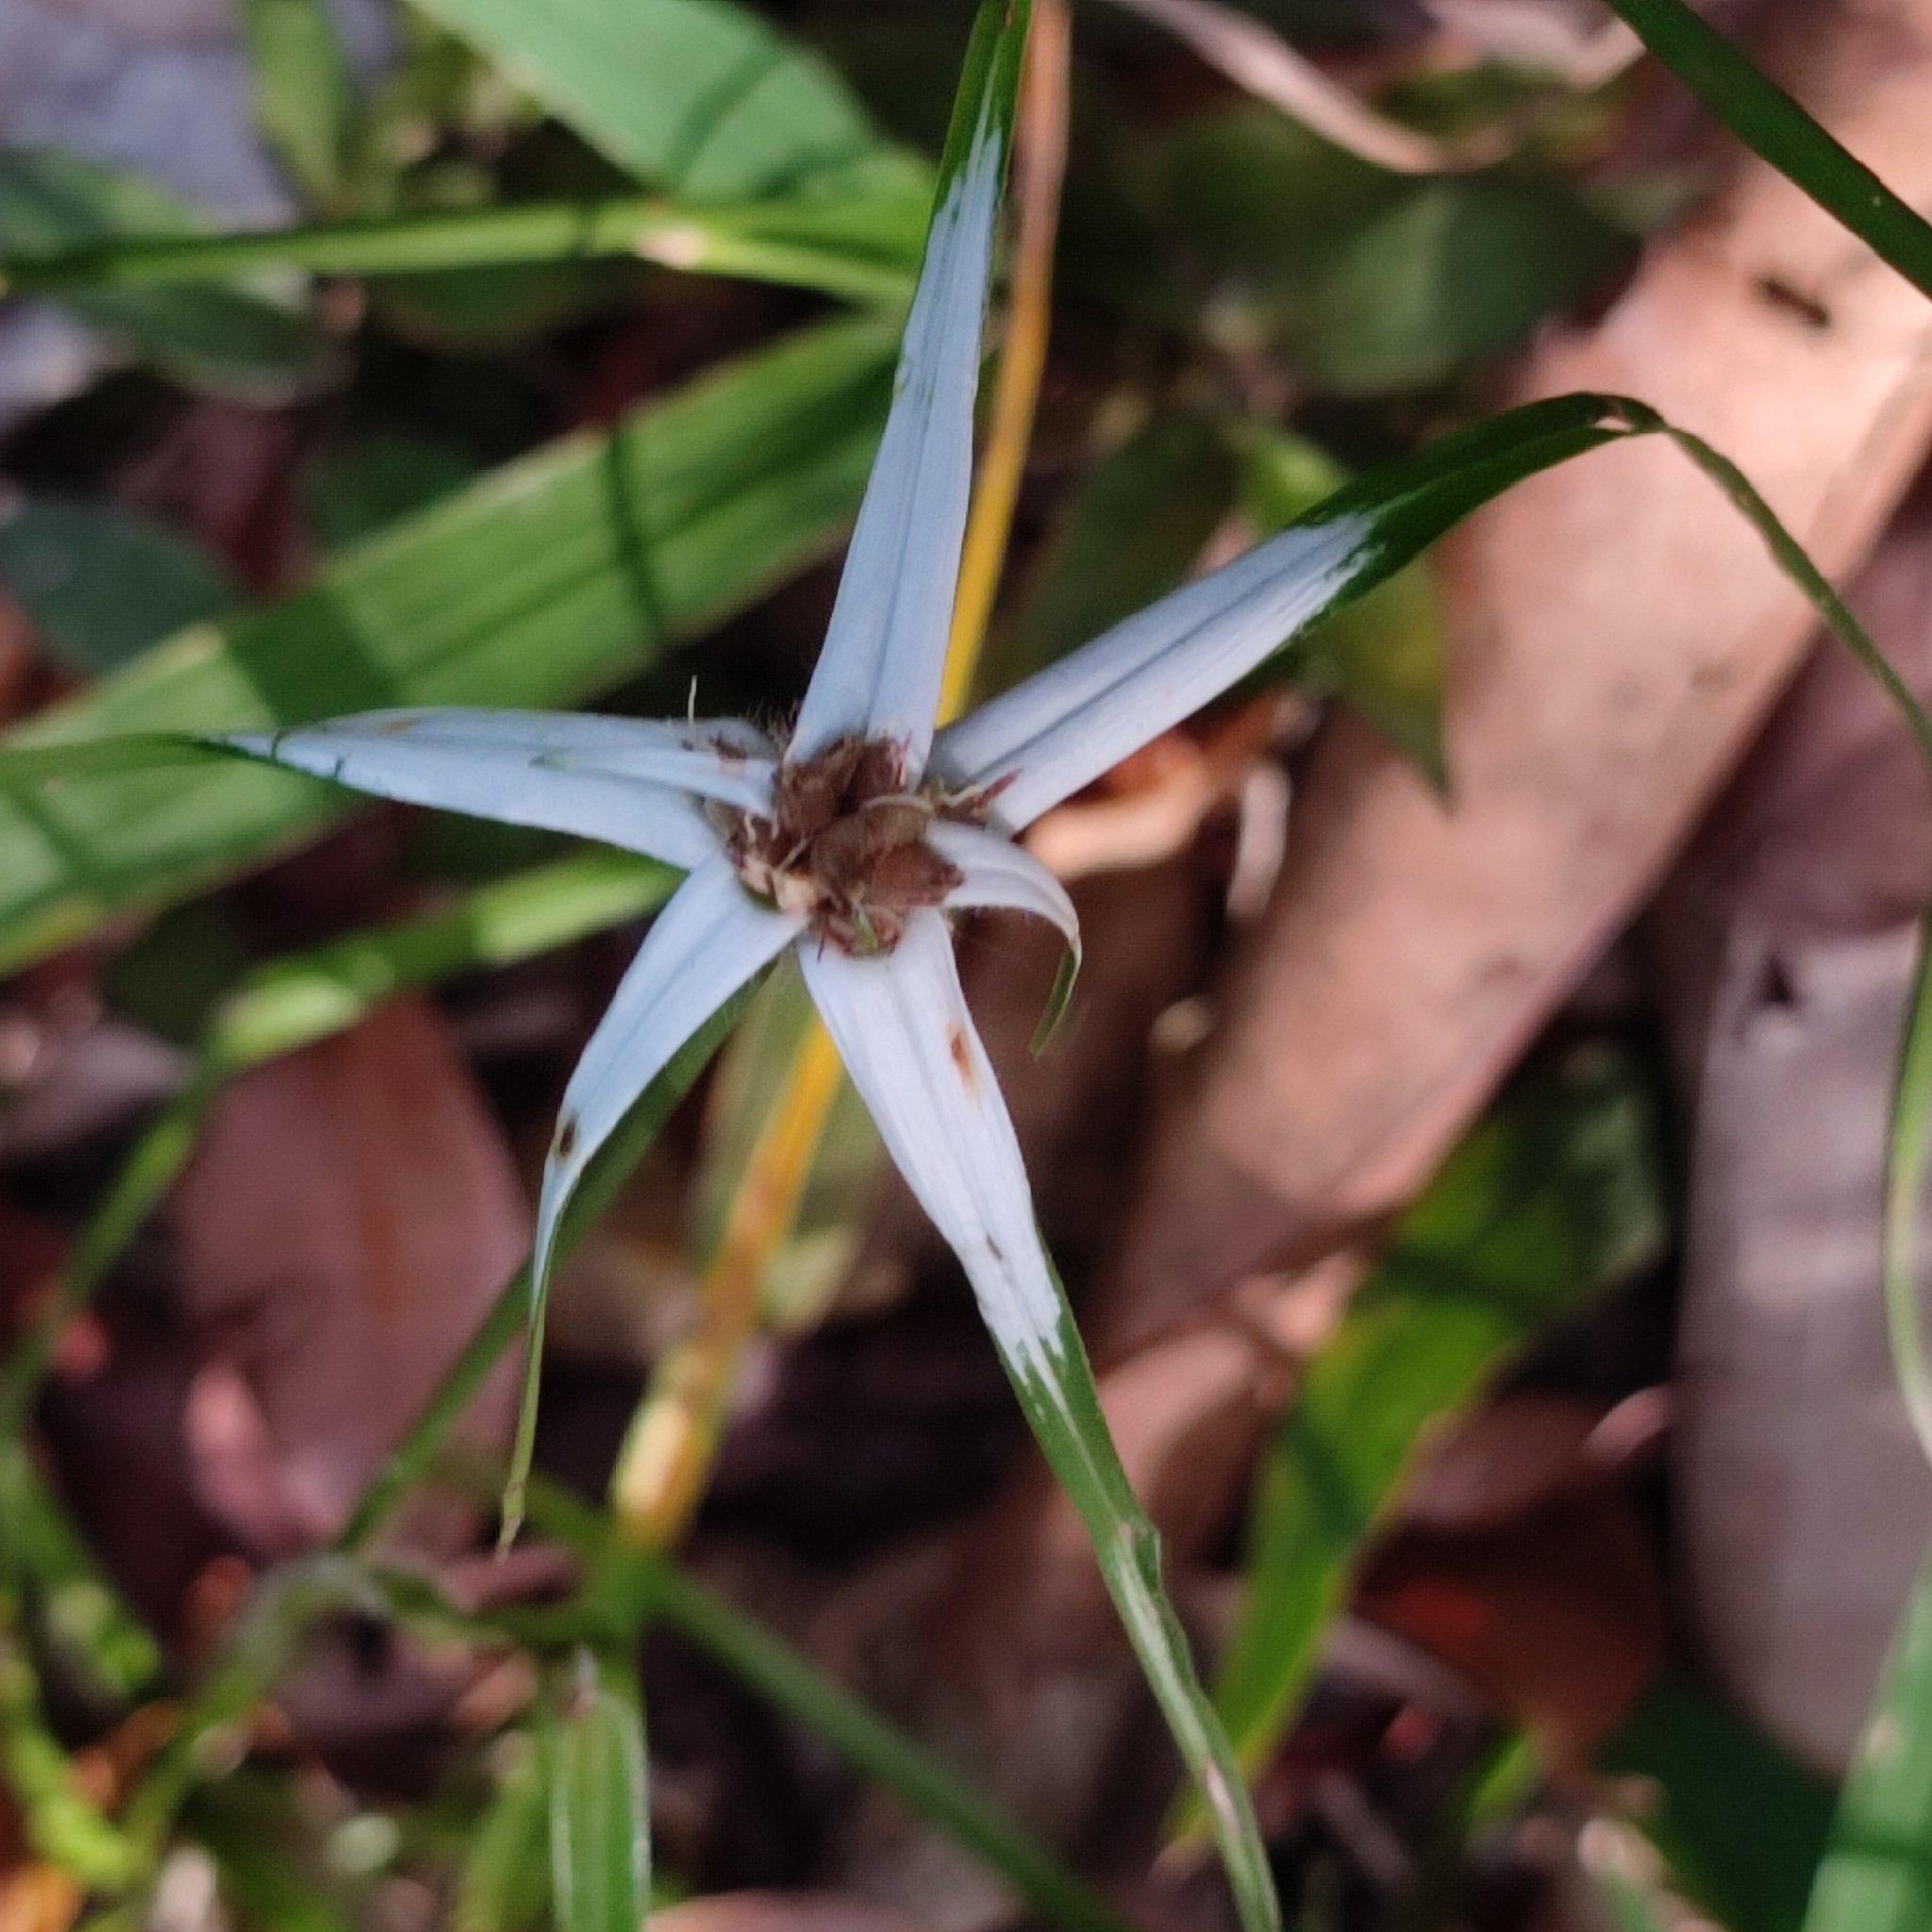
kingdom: Plantae
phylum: Tracheophyta
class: Liliopsida
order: Poales
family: Cyperaceae
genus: Rhynchospora
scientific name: Rhynchospora nervosa
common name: Star sedge
